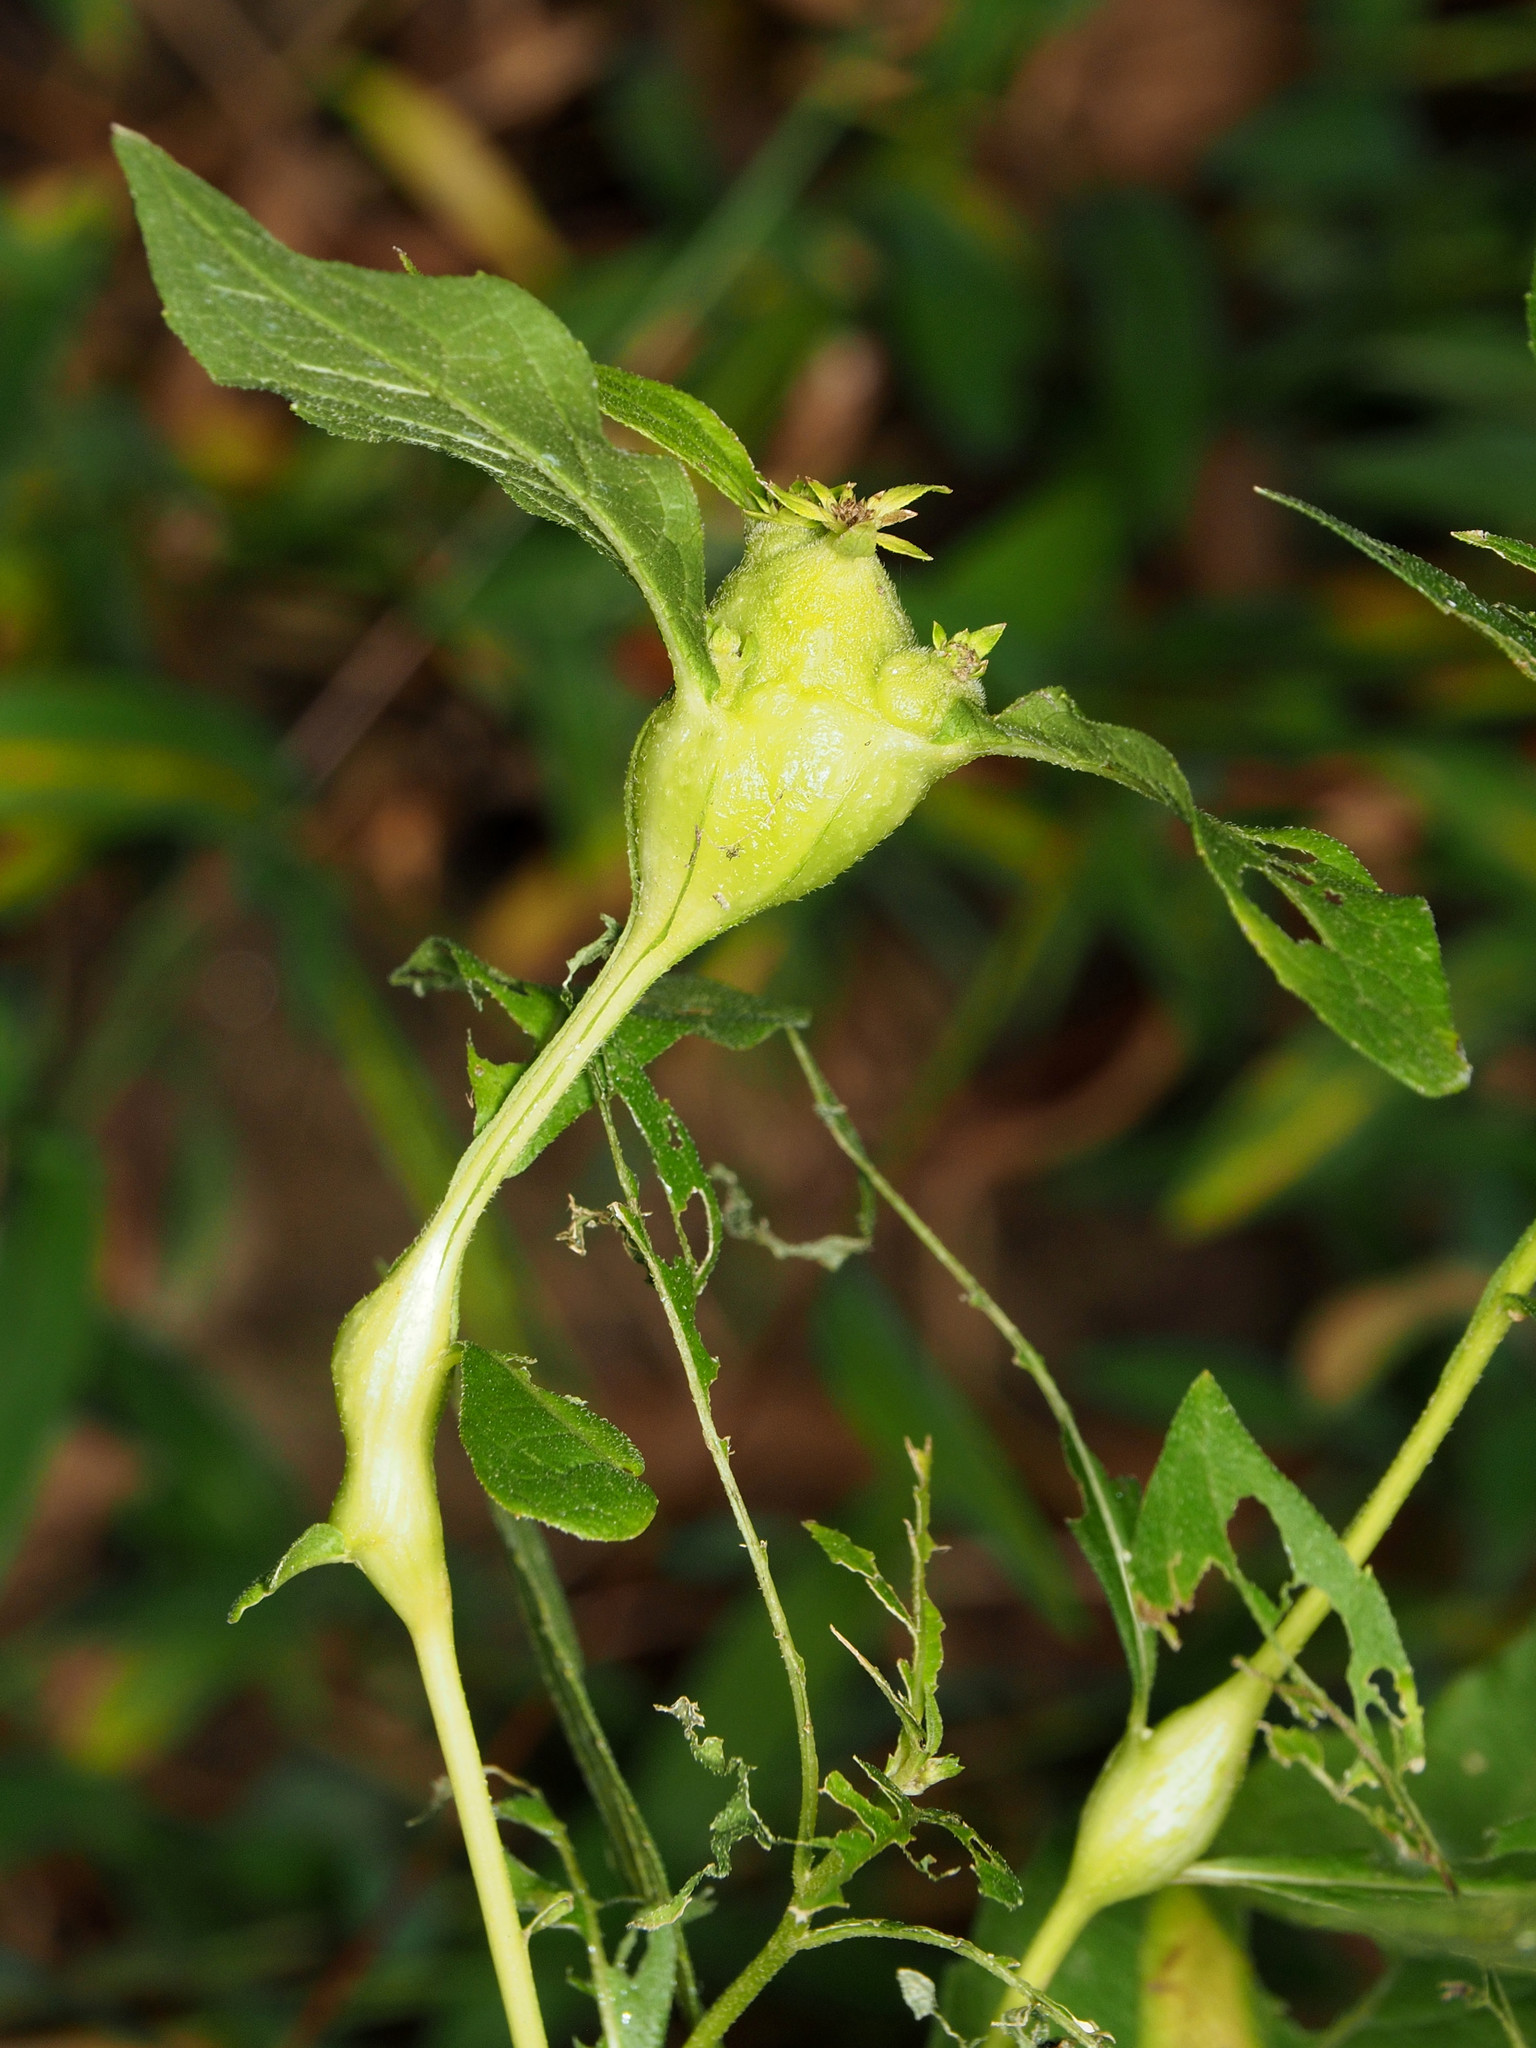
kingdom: Animalia
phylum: Arthropoda
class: Insecta
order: Diptera
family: Cecidomyiidae
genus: Neolasioptera
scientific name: Neolasioptera verbesinae
